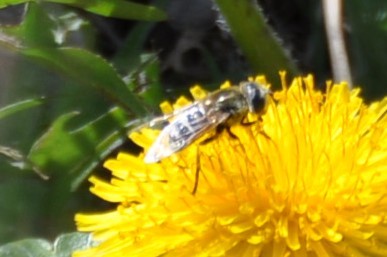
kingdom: Animalia
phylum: Arthropoda
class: Insecta
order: Diptera
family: Syrphidae
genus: Eristalis
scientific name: Eristalis stipator
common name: Yellow-shouldered drone fly
